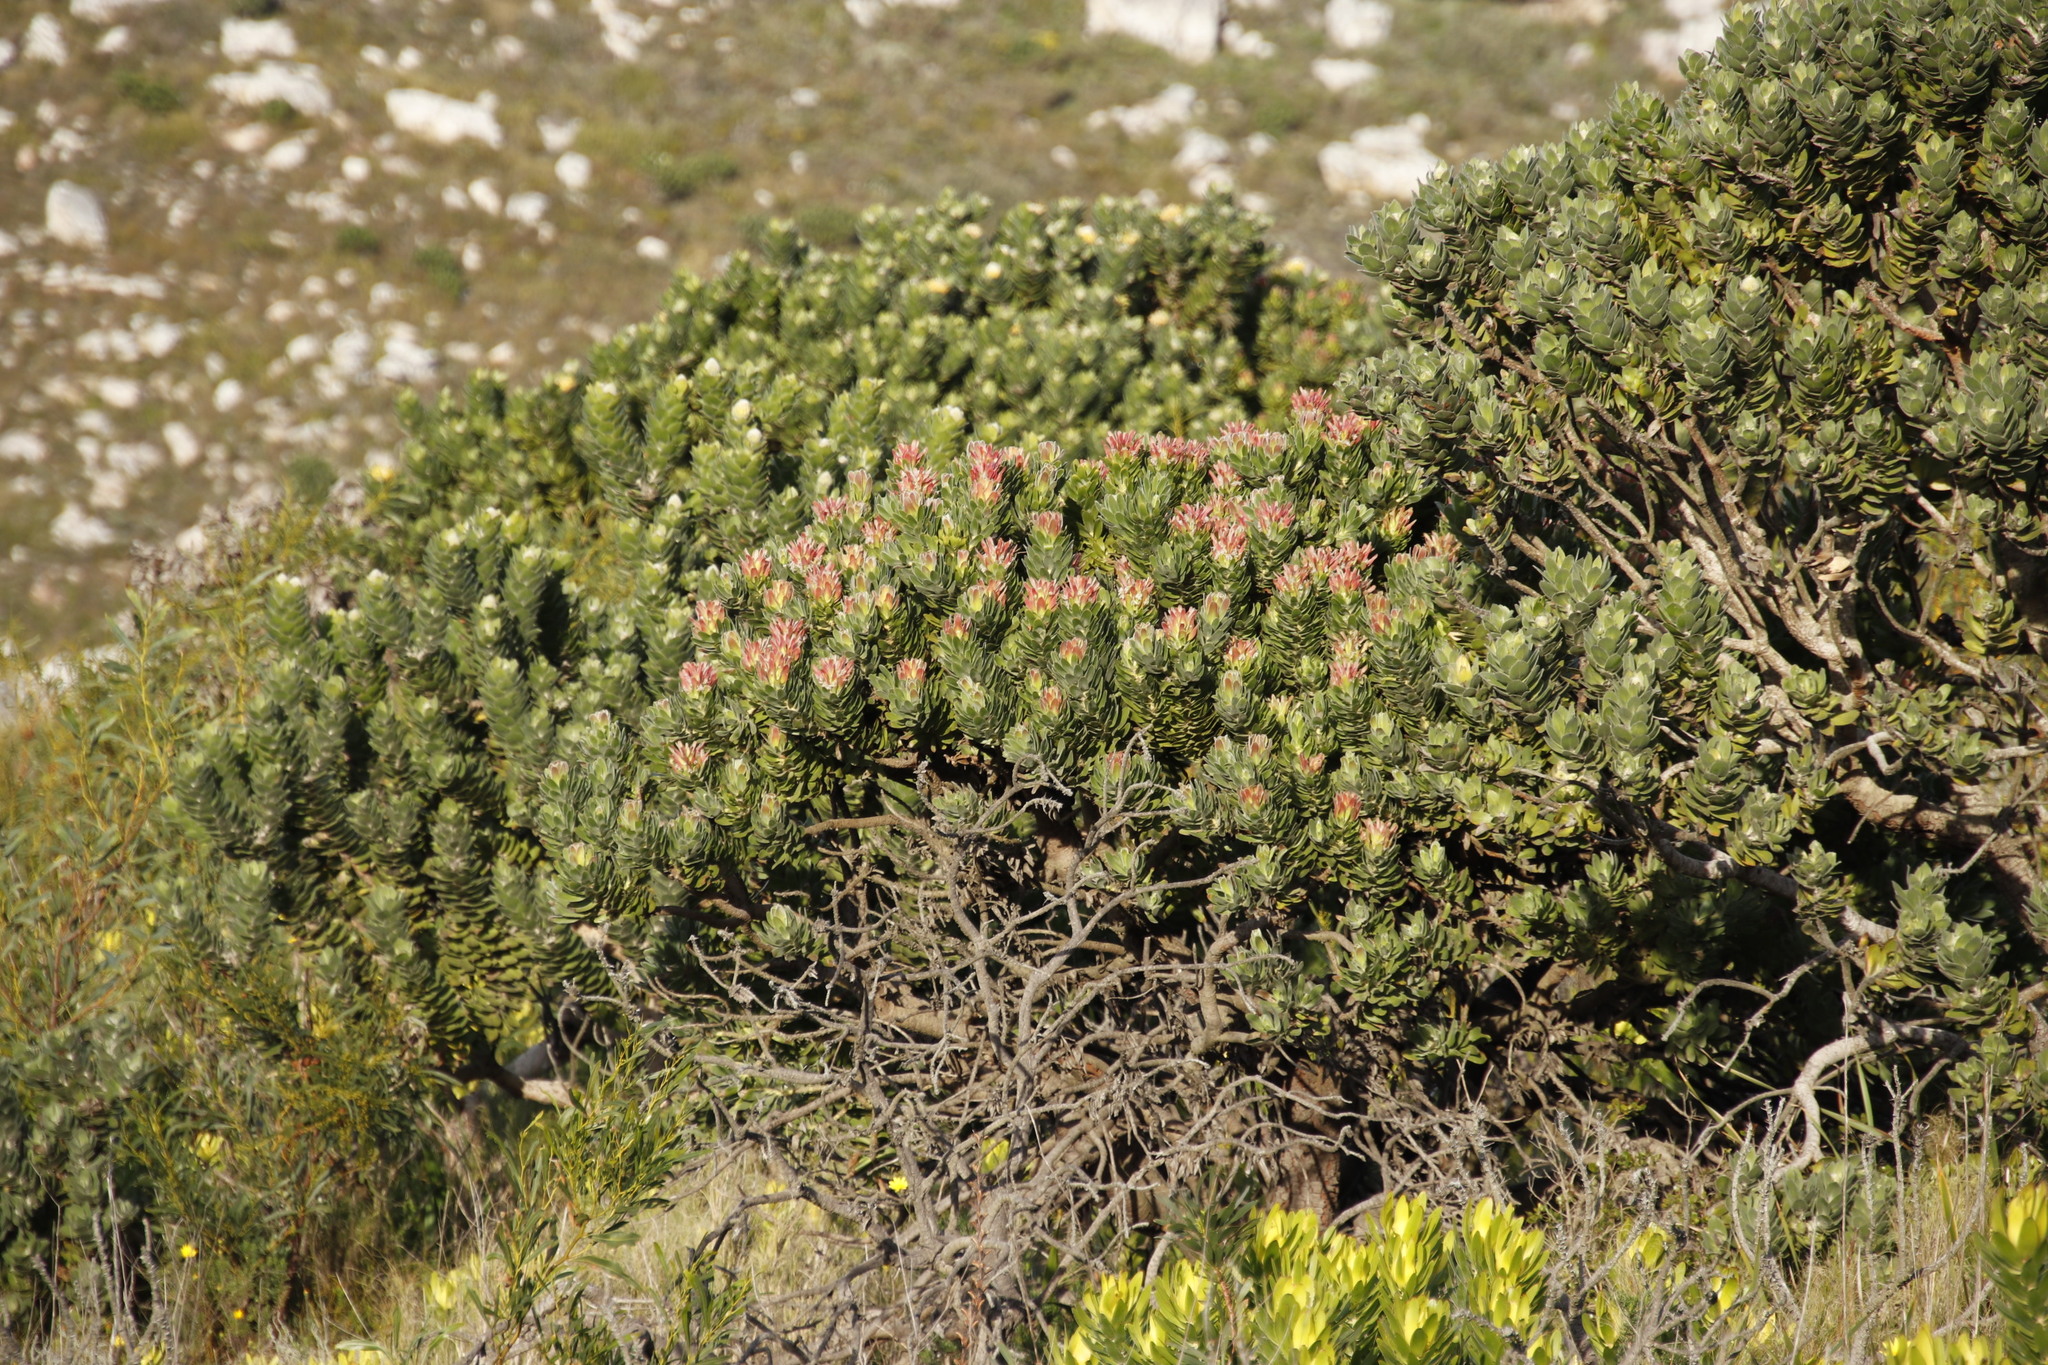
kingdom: Plantae
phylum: Tracheophyta
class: Magnoliopsida
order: Proteales
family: Proteaceae
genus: Mimetes
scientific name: Mimetes fimbriifolius
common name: Fringed bottlebrush
